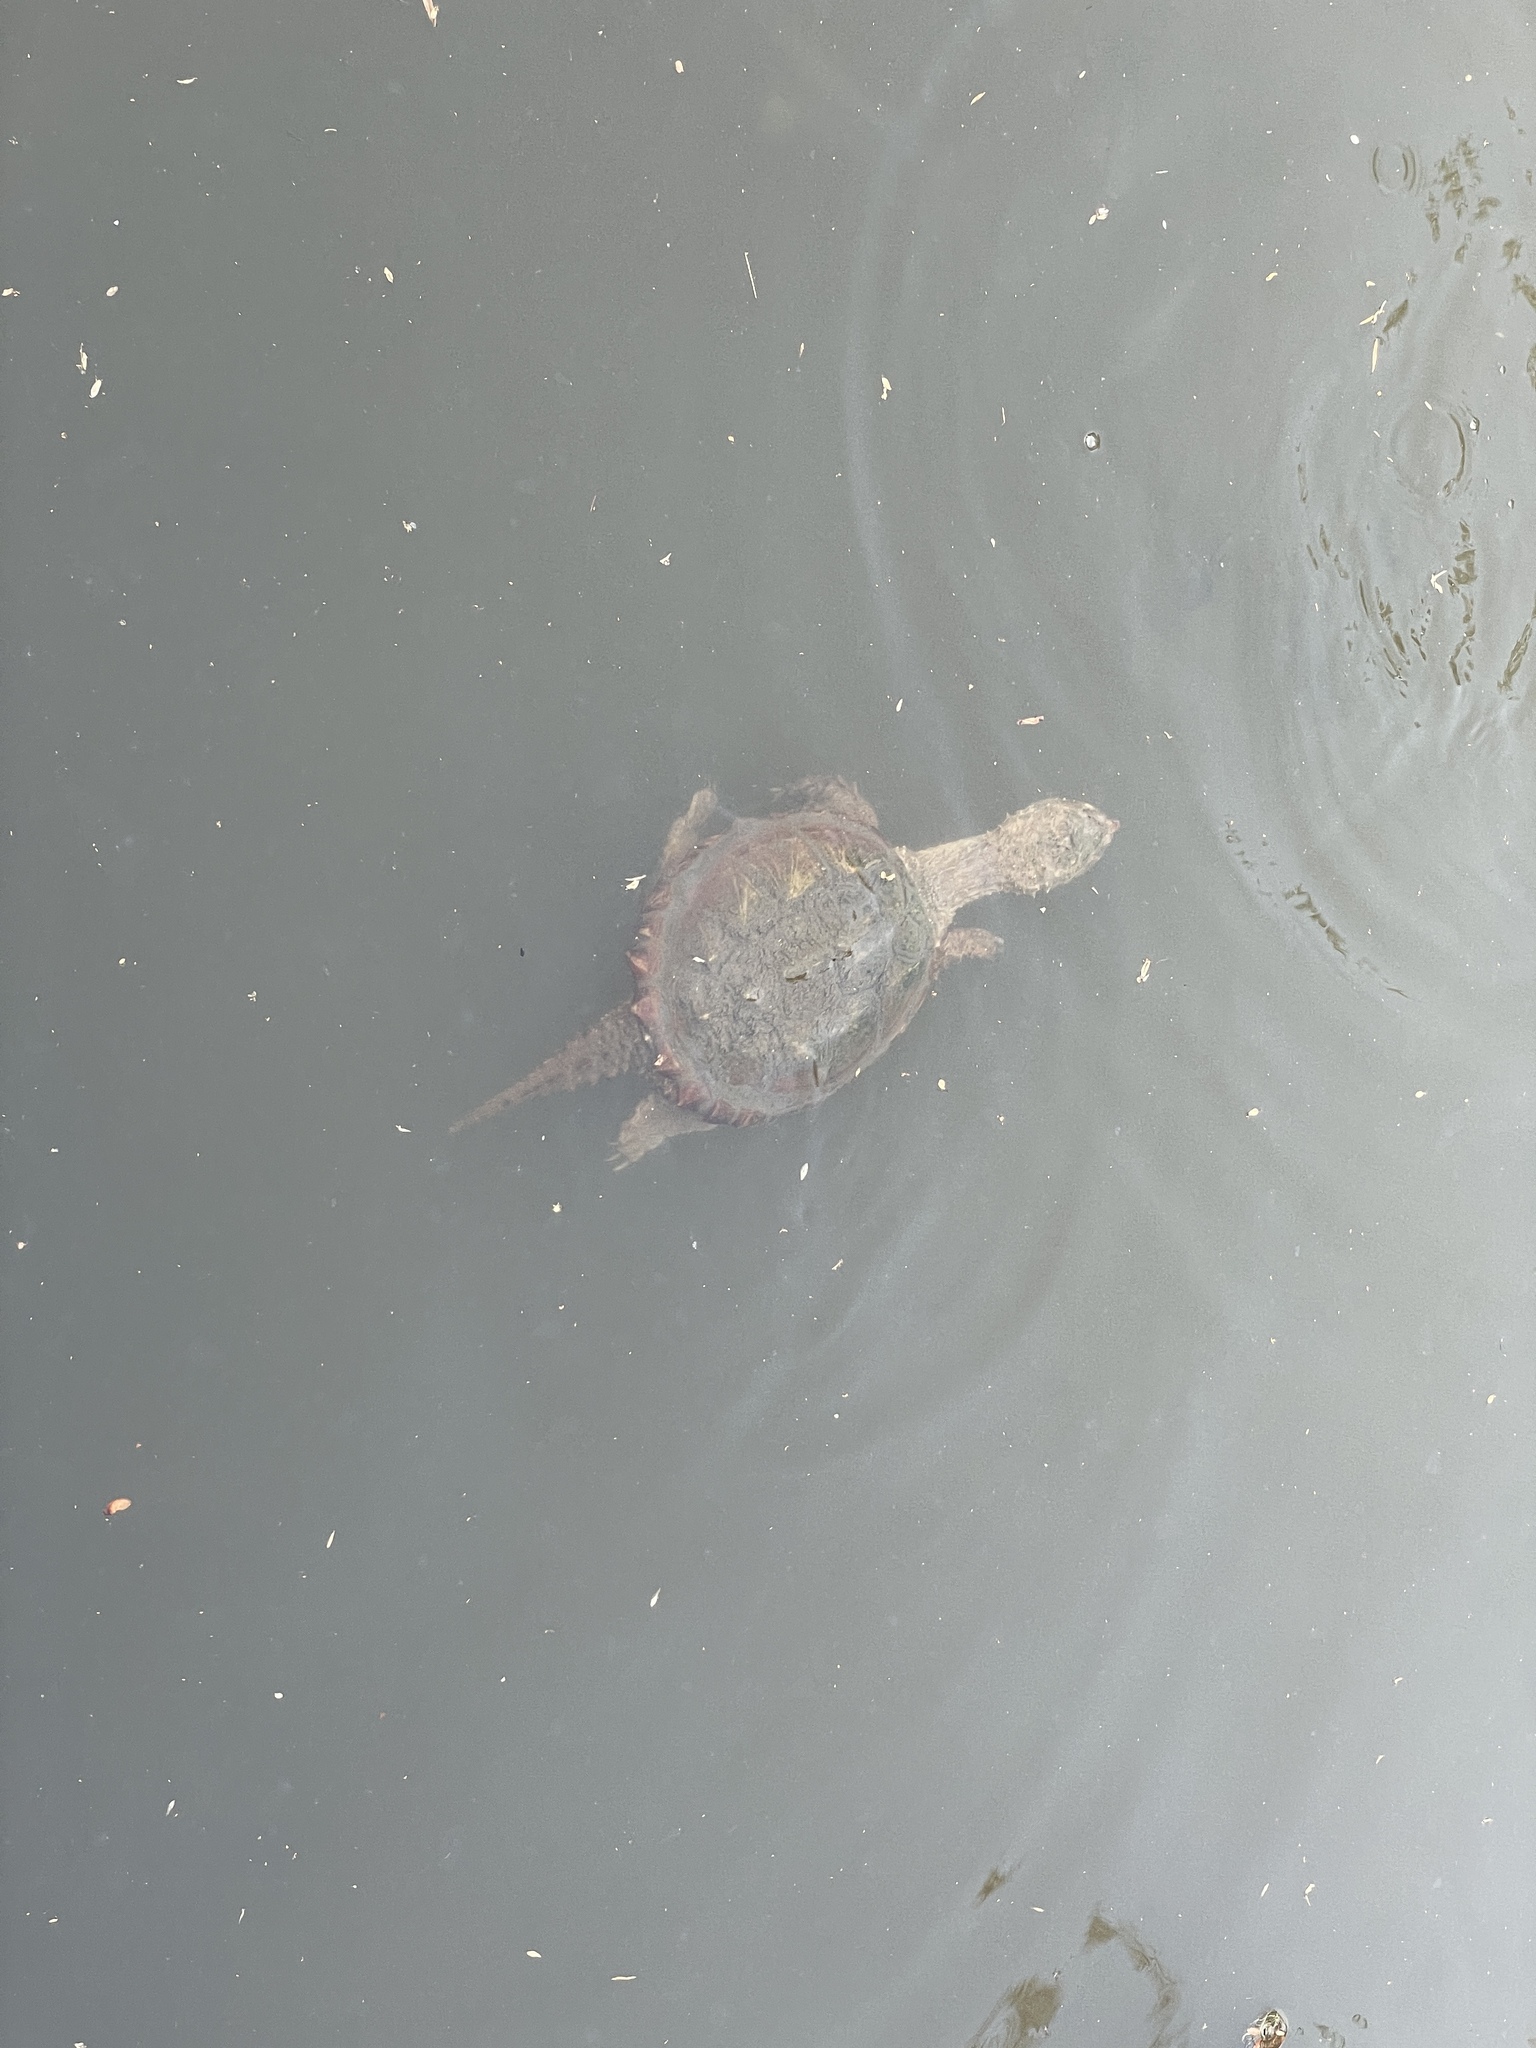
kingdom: Animalia
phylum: Chordata
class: Testudines
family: Chelydridae
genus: Chelydra
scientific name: Chelydra serpentina
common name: Common snapping turtle
